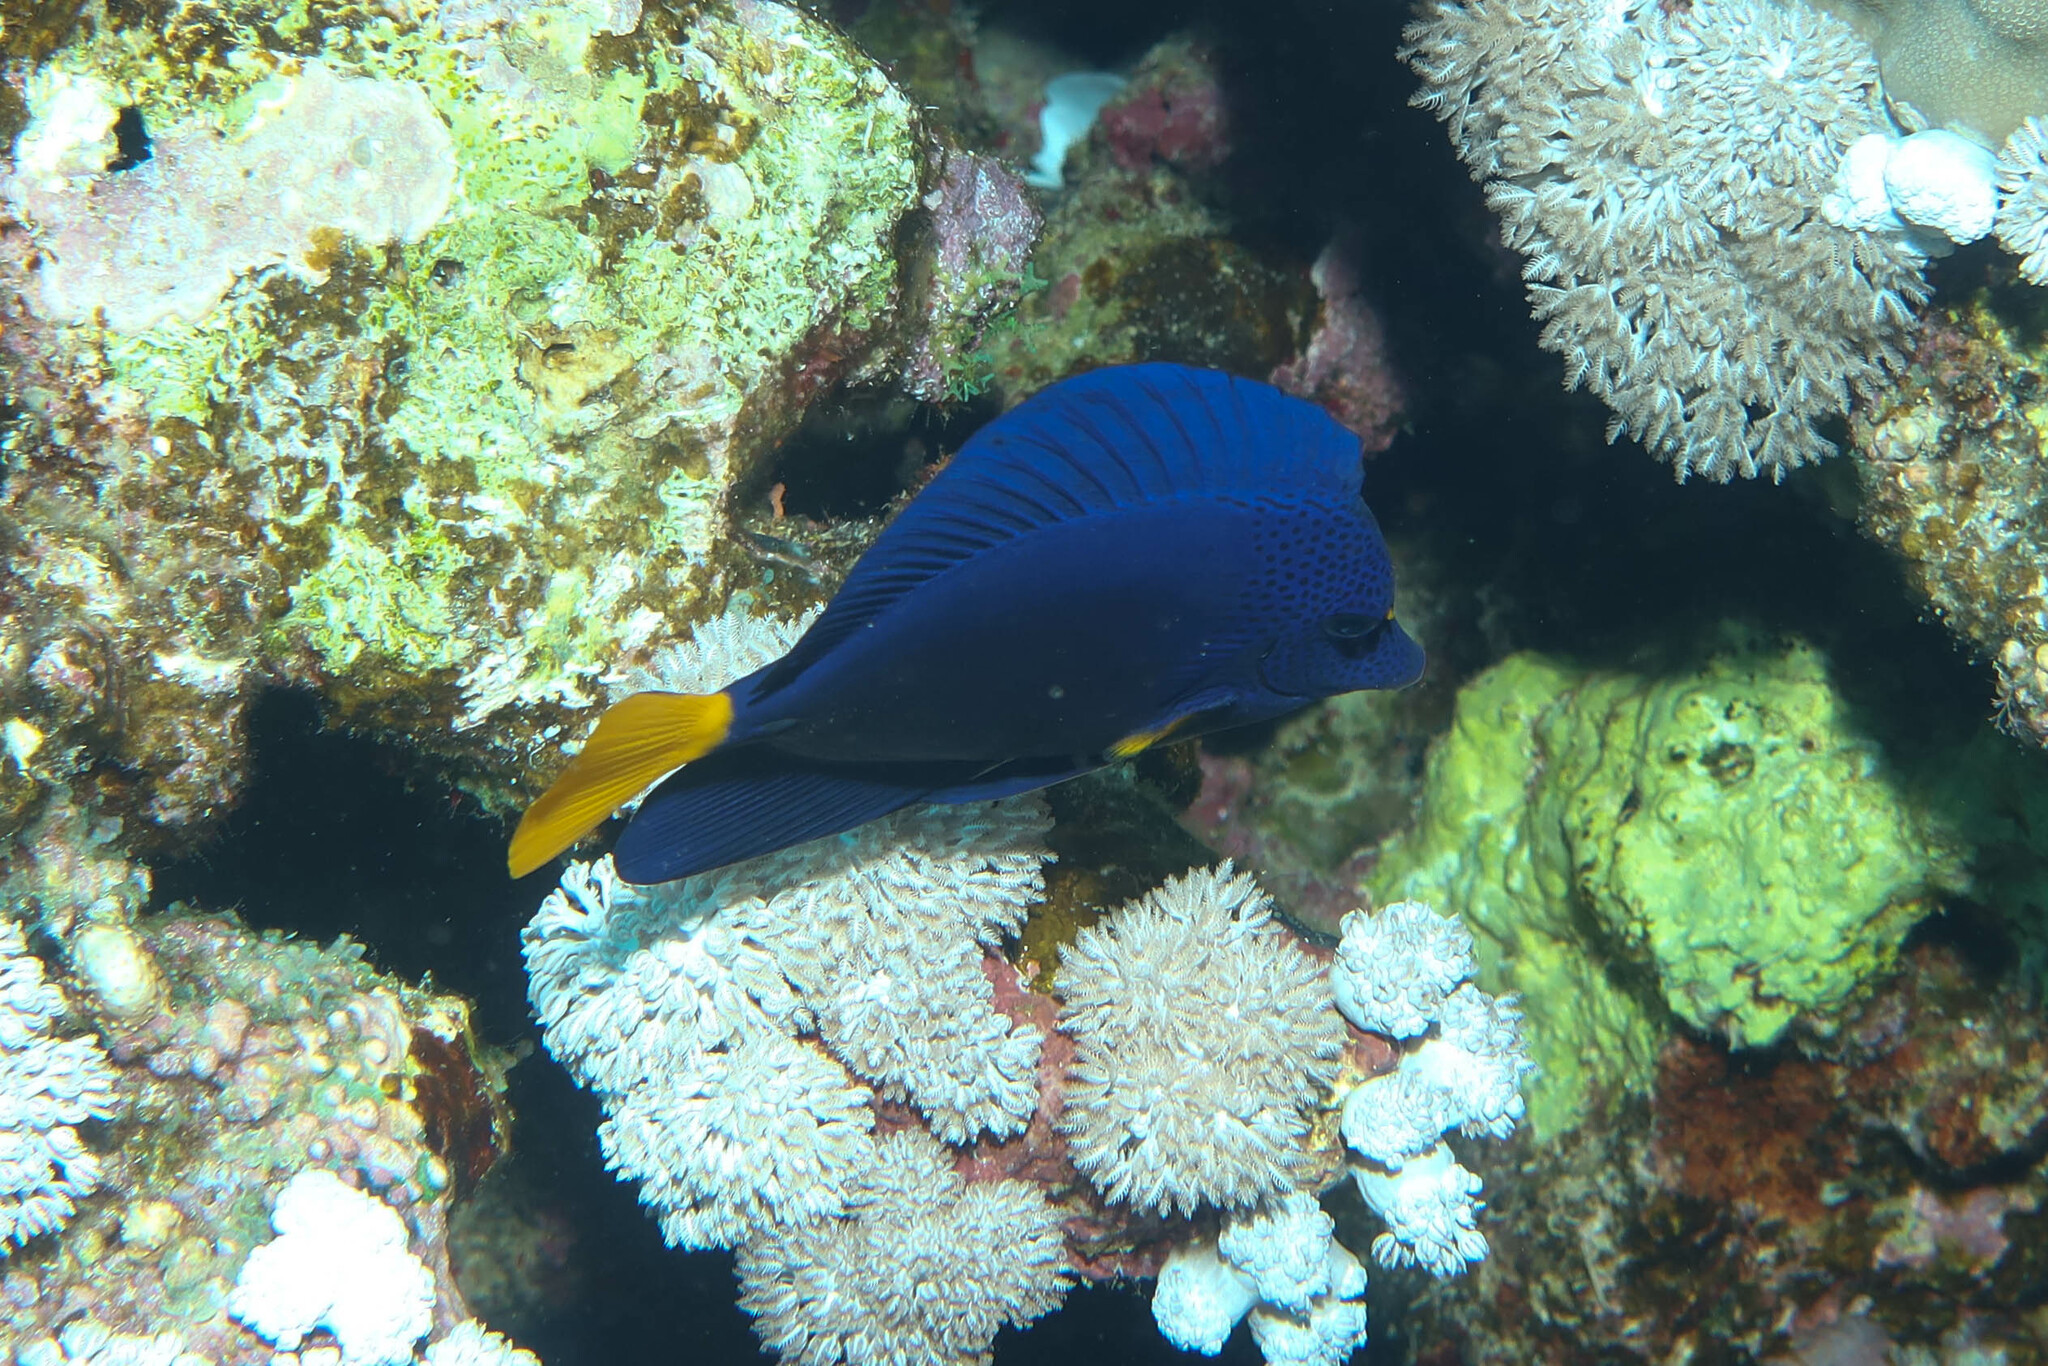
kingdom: Animalia
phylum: Chordata
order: Perciformes
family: Acanthuridae
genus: Zebrasoma
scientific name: Zebrasoma xanthurum
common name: Purple tang
